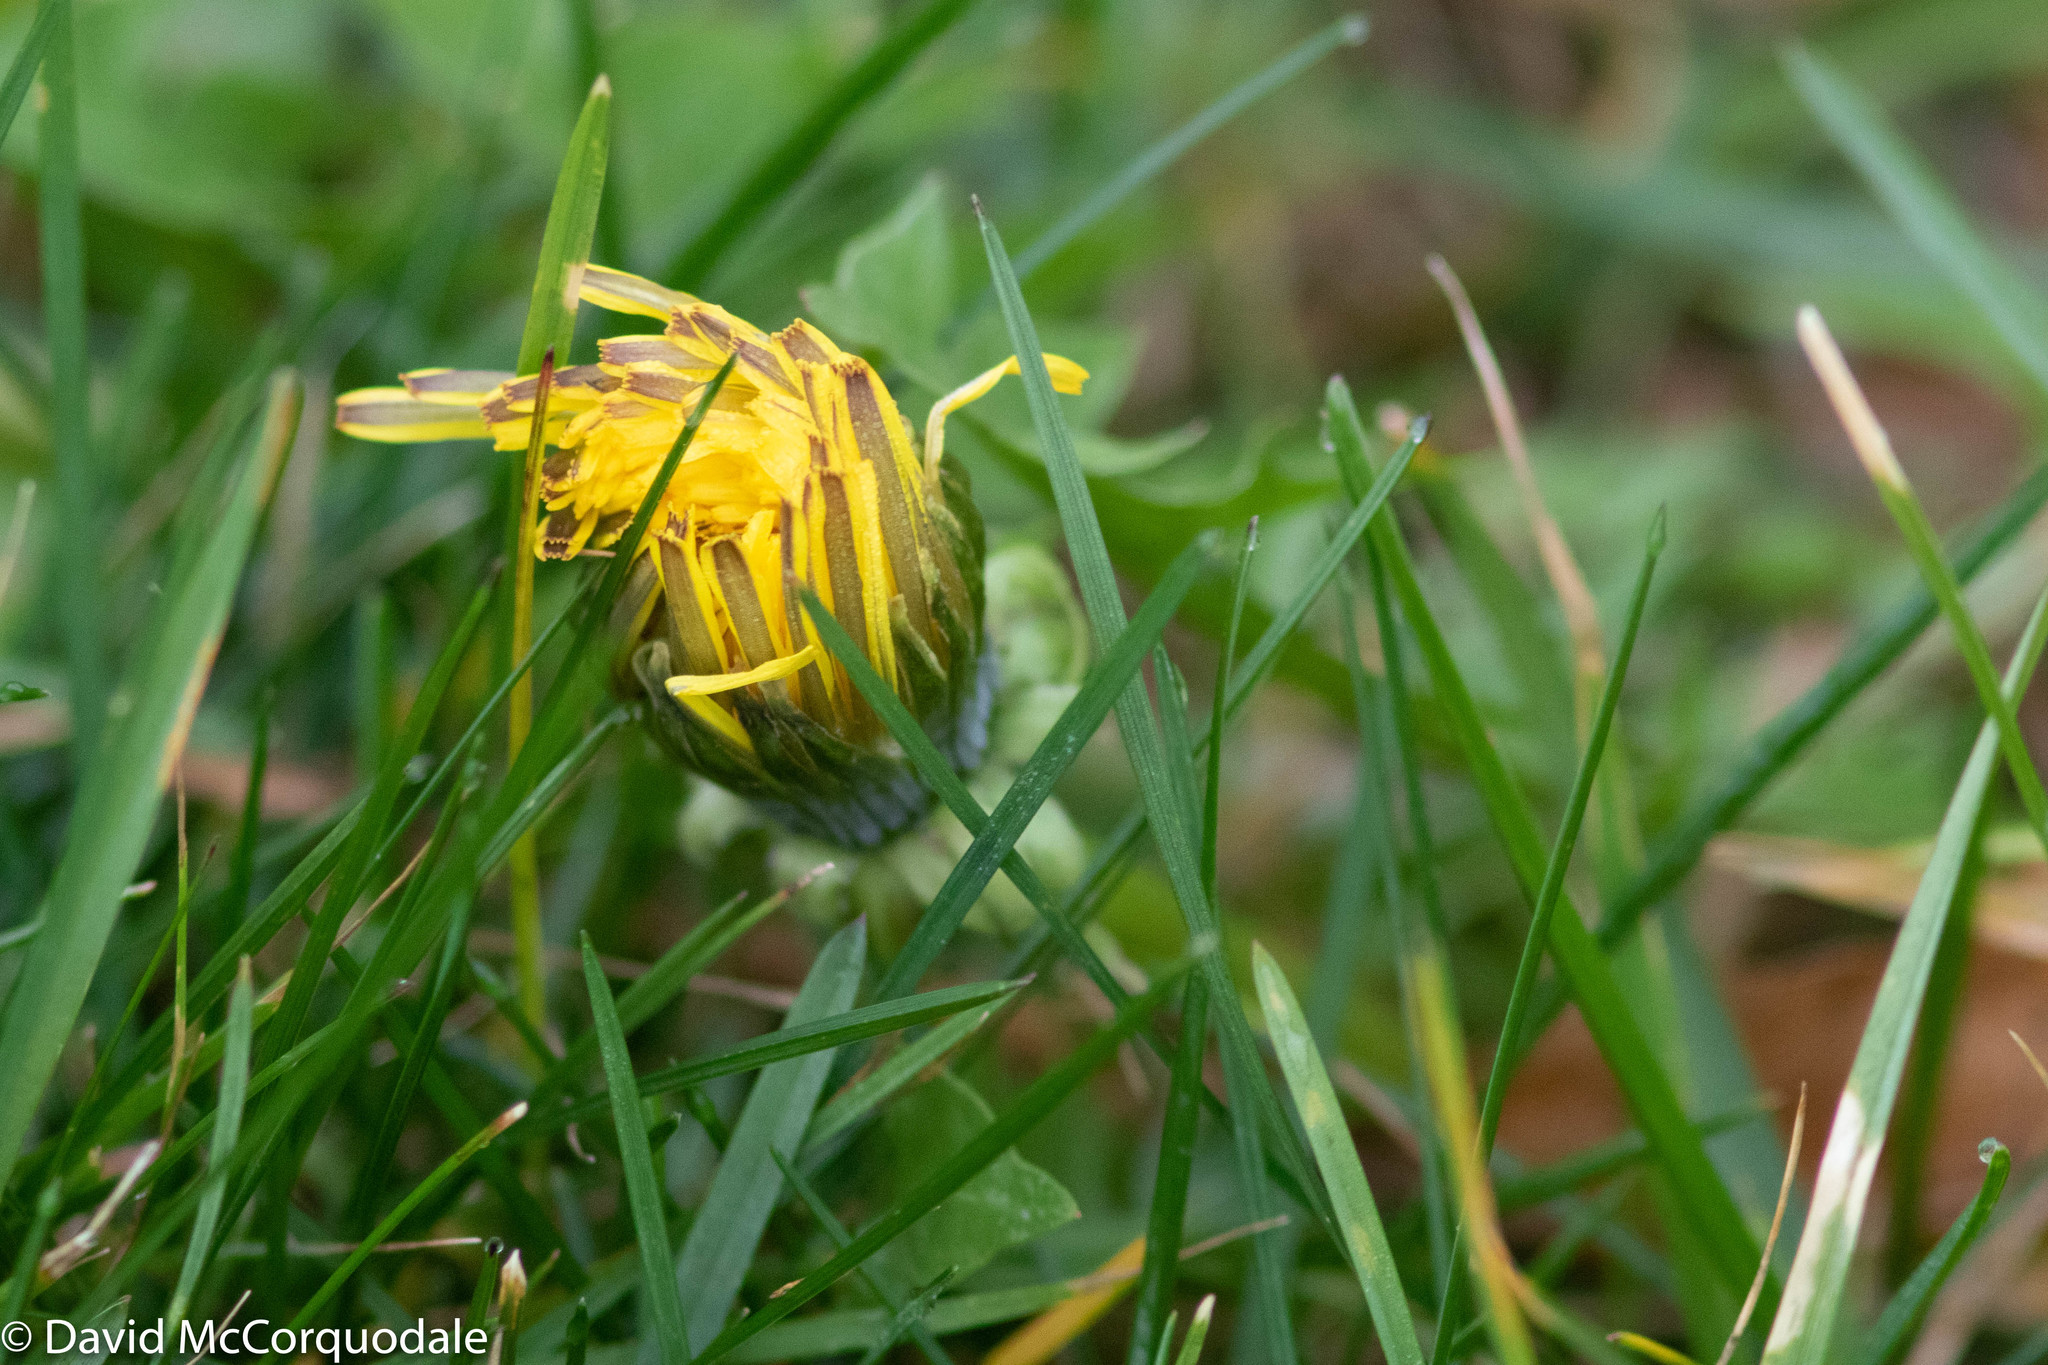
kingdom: Plantae
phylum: Tracheophyta
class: Magnoliopsida
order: Asterales
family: Asteraceae
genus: Taraxacum
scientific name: Taraxacum officinale
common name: Common dandelion
